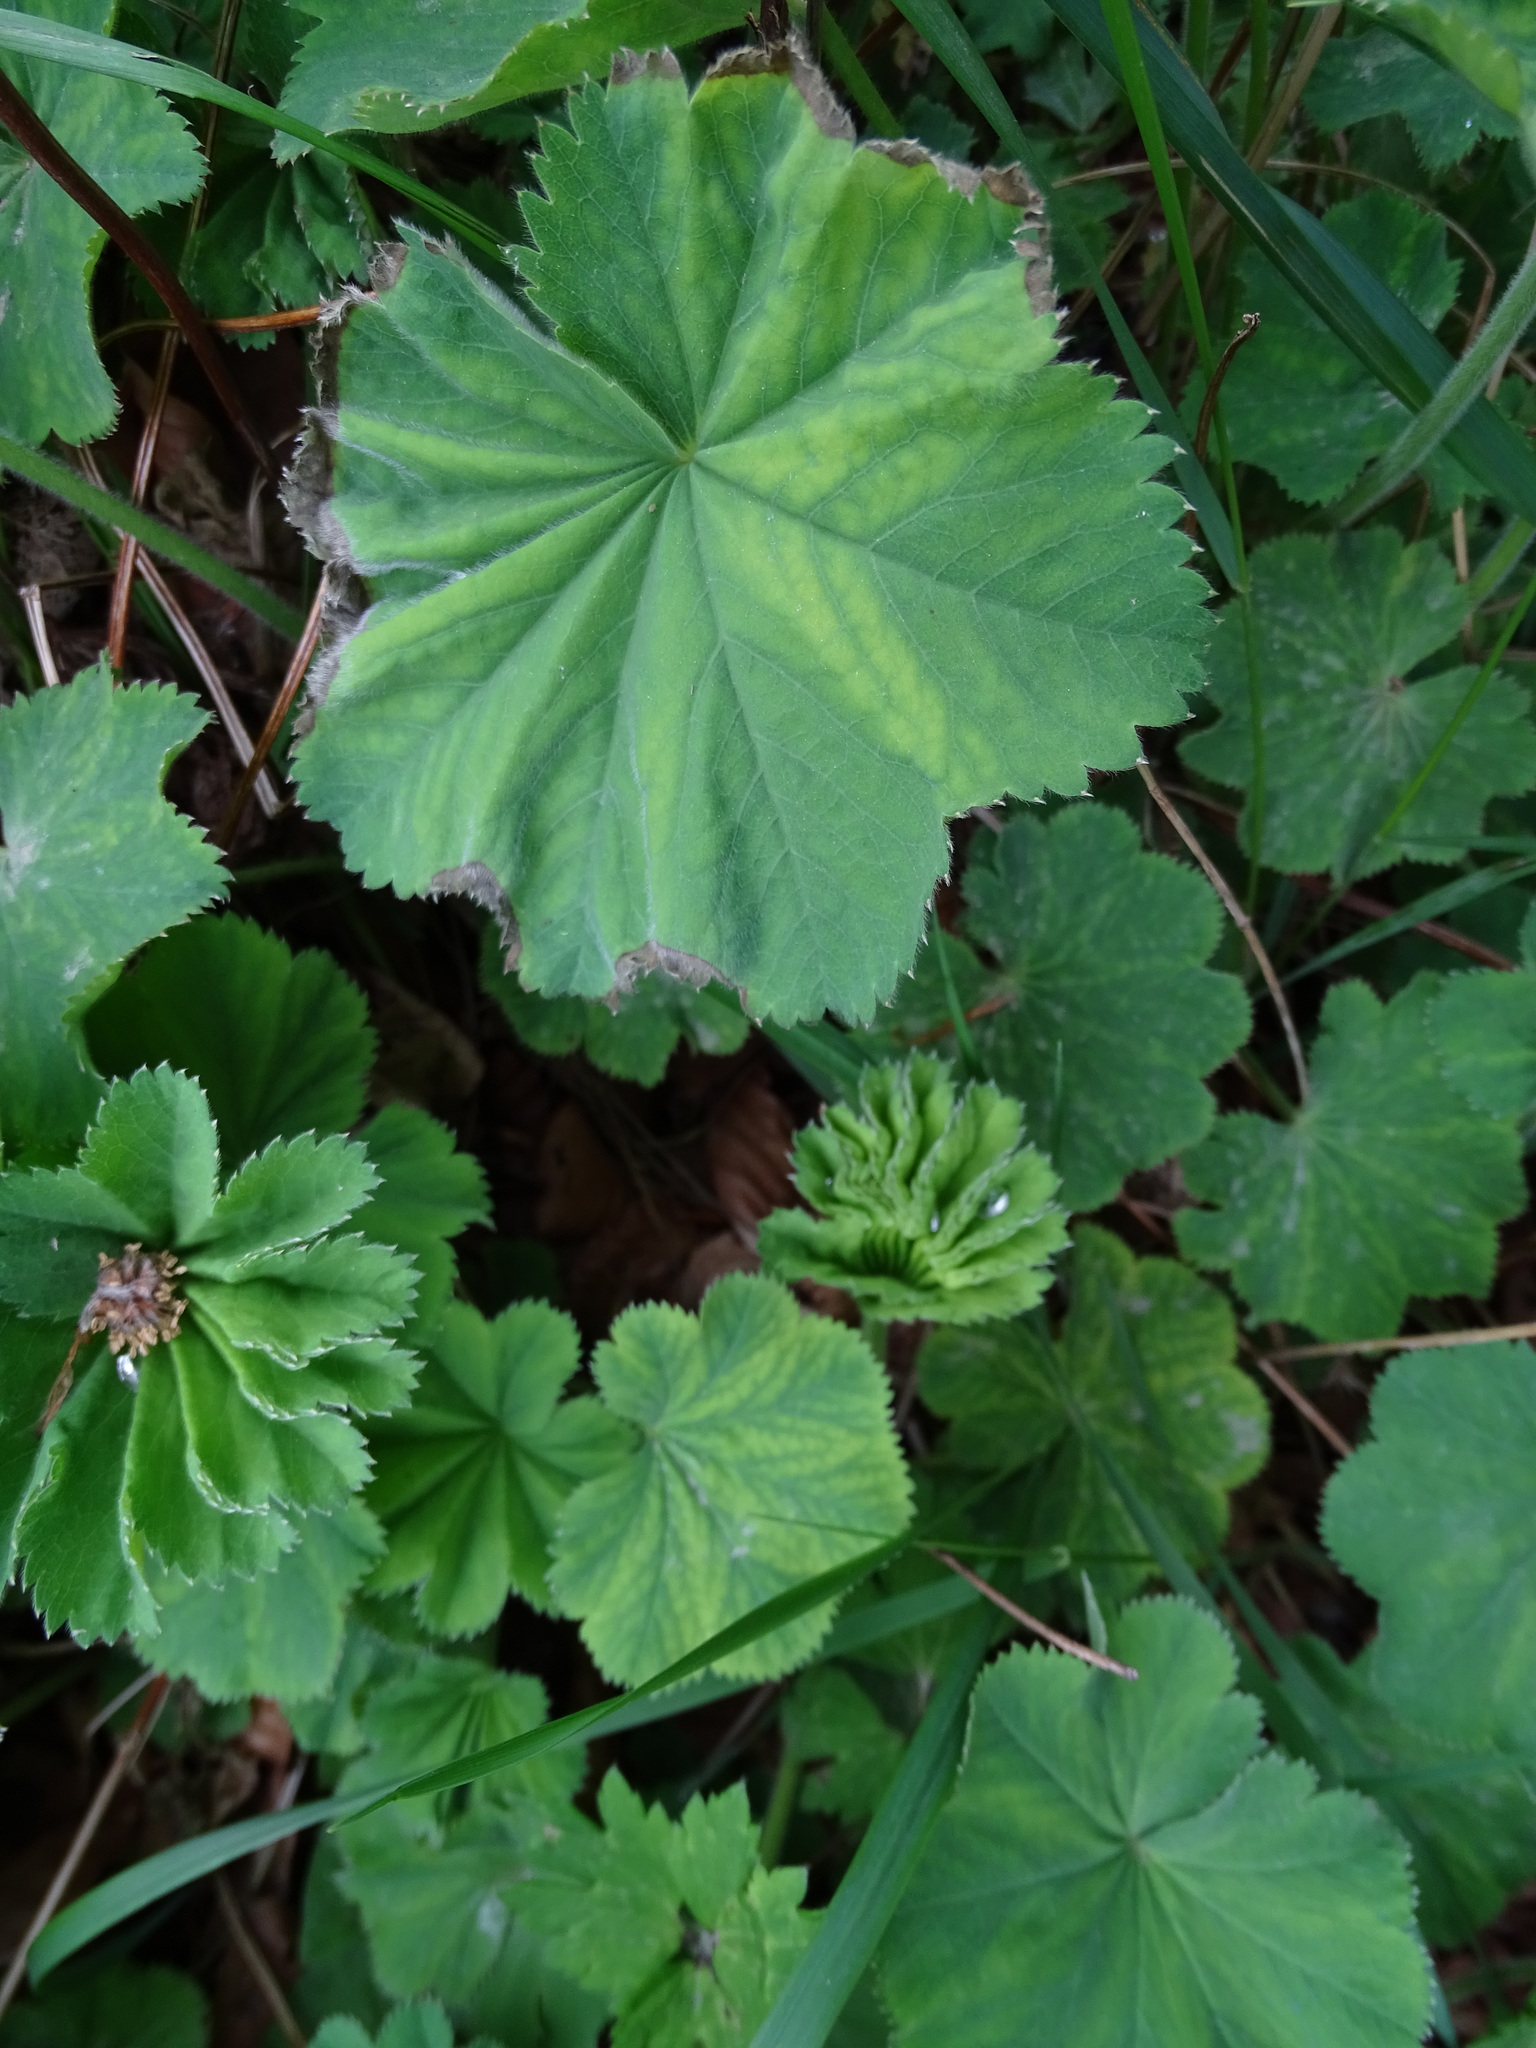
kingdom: Plantae
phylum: Tracheophyta
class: Magnoliopsida
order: Rosales
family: Rosaceae
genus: Alchemilla
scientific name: Alchemilla mollis
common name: Lady's-mantle
